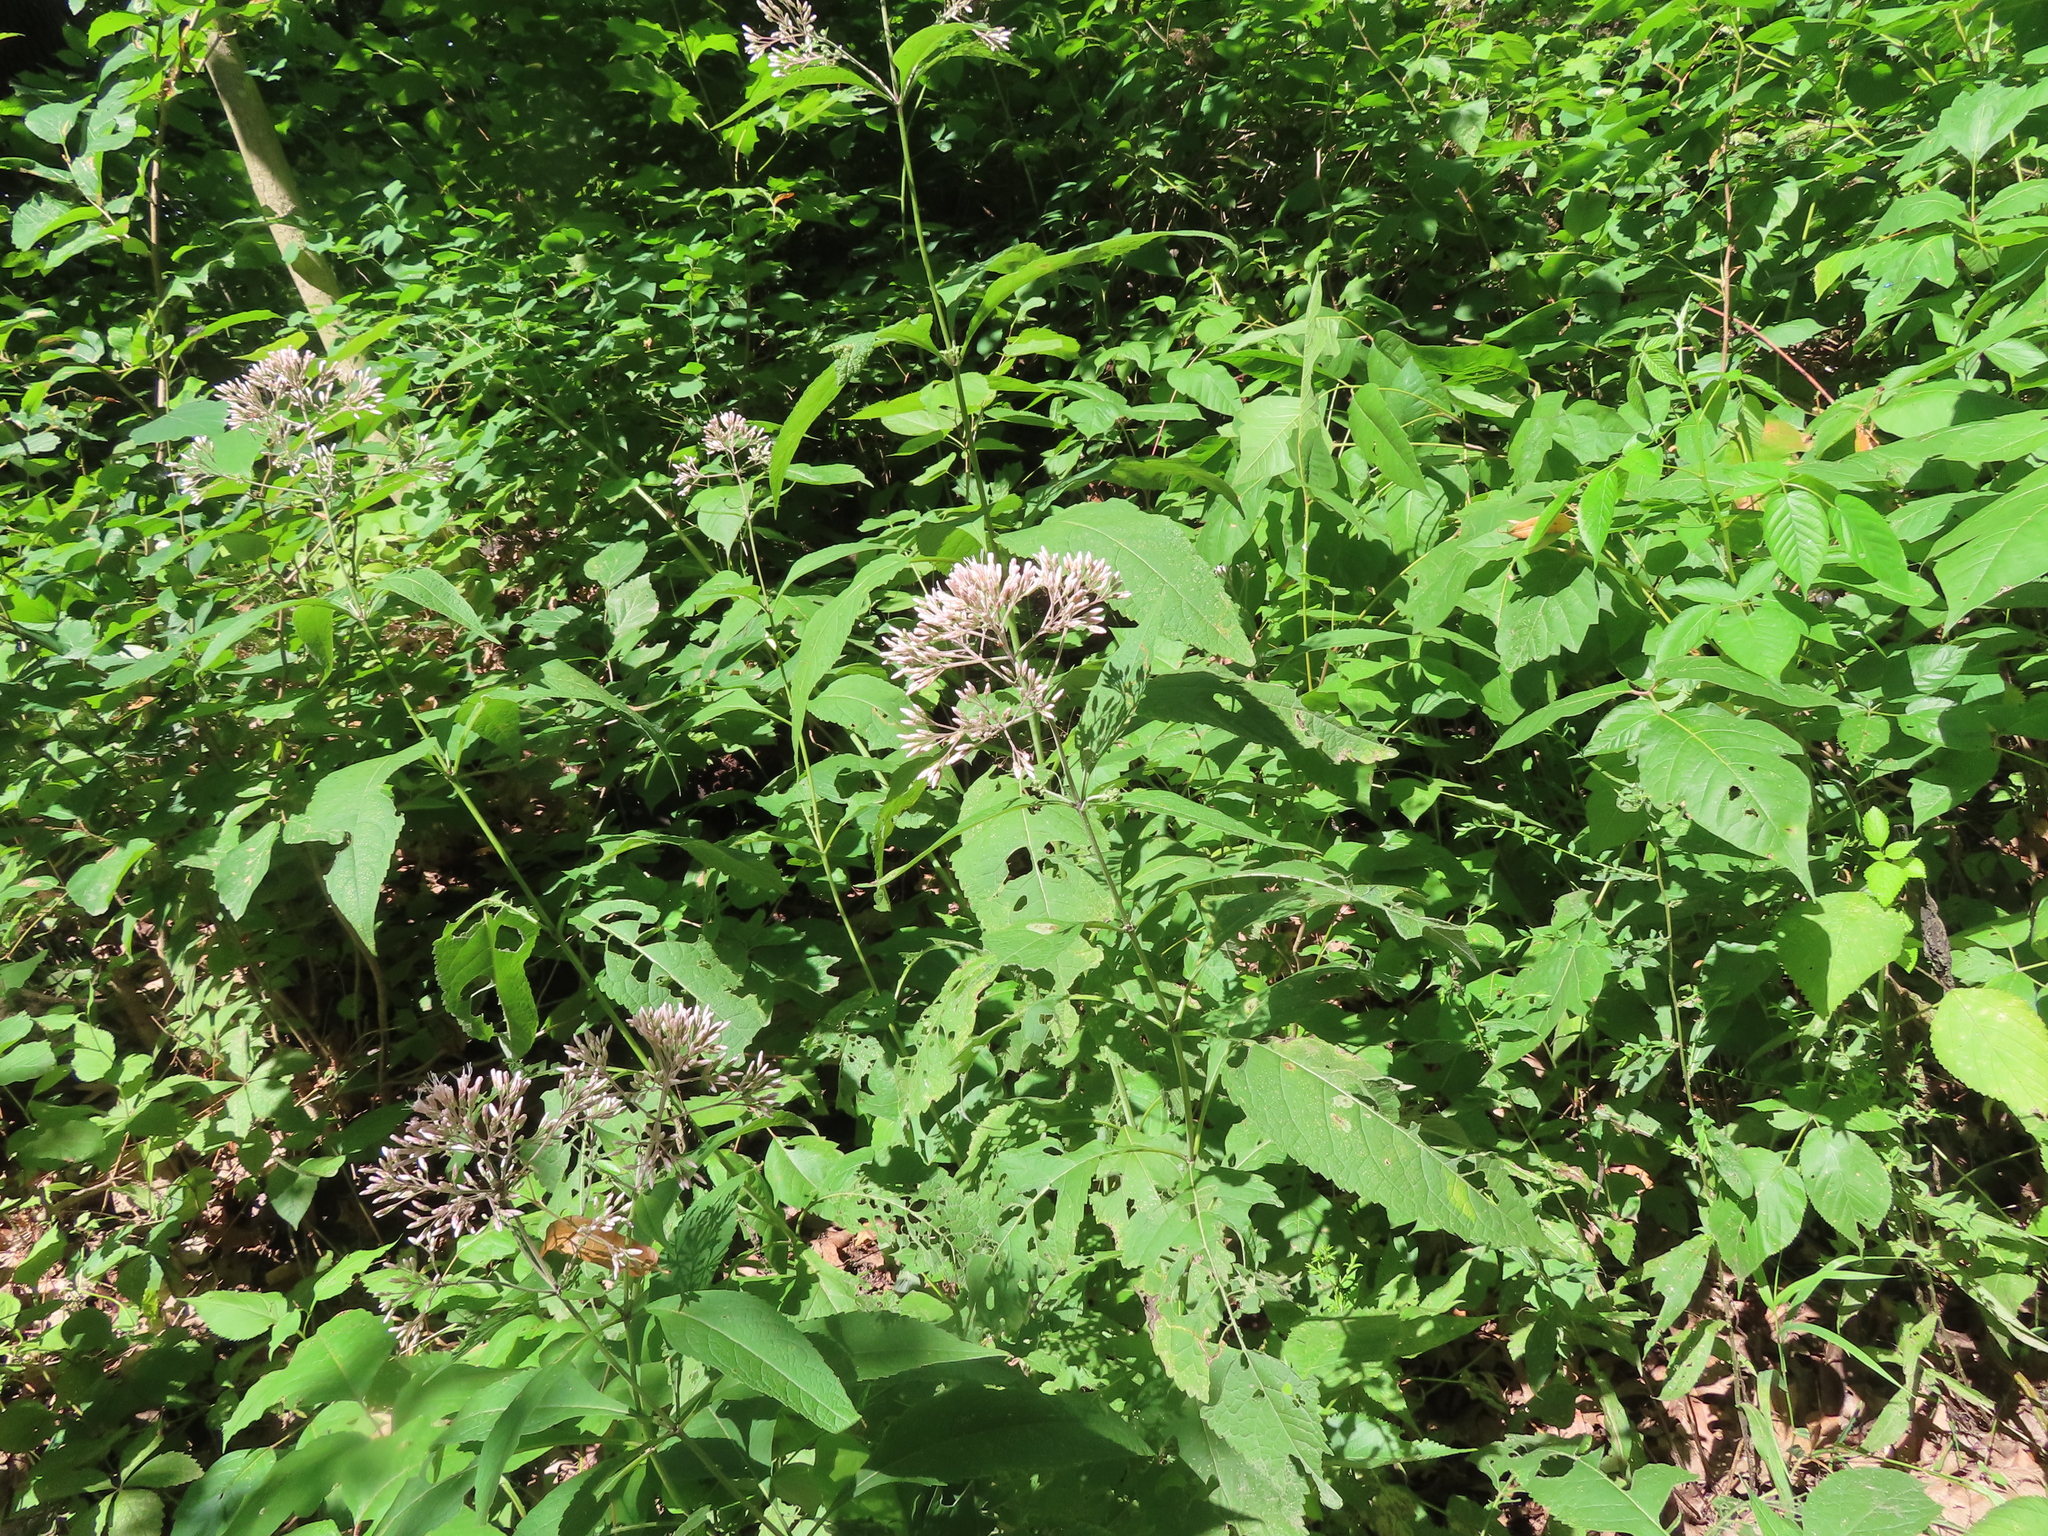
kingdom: Plantae
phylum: Tracheophyta
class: Magnoliopsida
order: Asterales
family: Asteraceae
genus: Eutrochium
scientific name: Eutrochium purpureum
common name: Gravelroot
